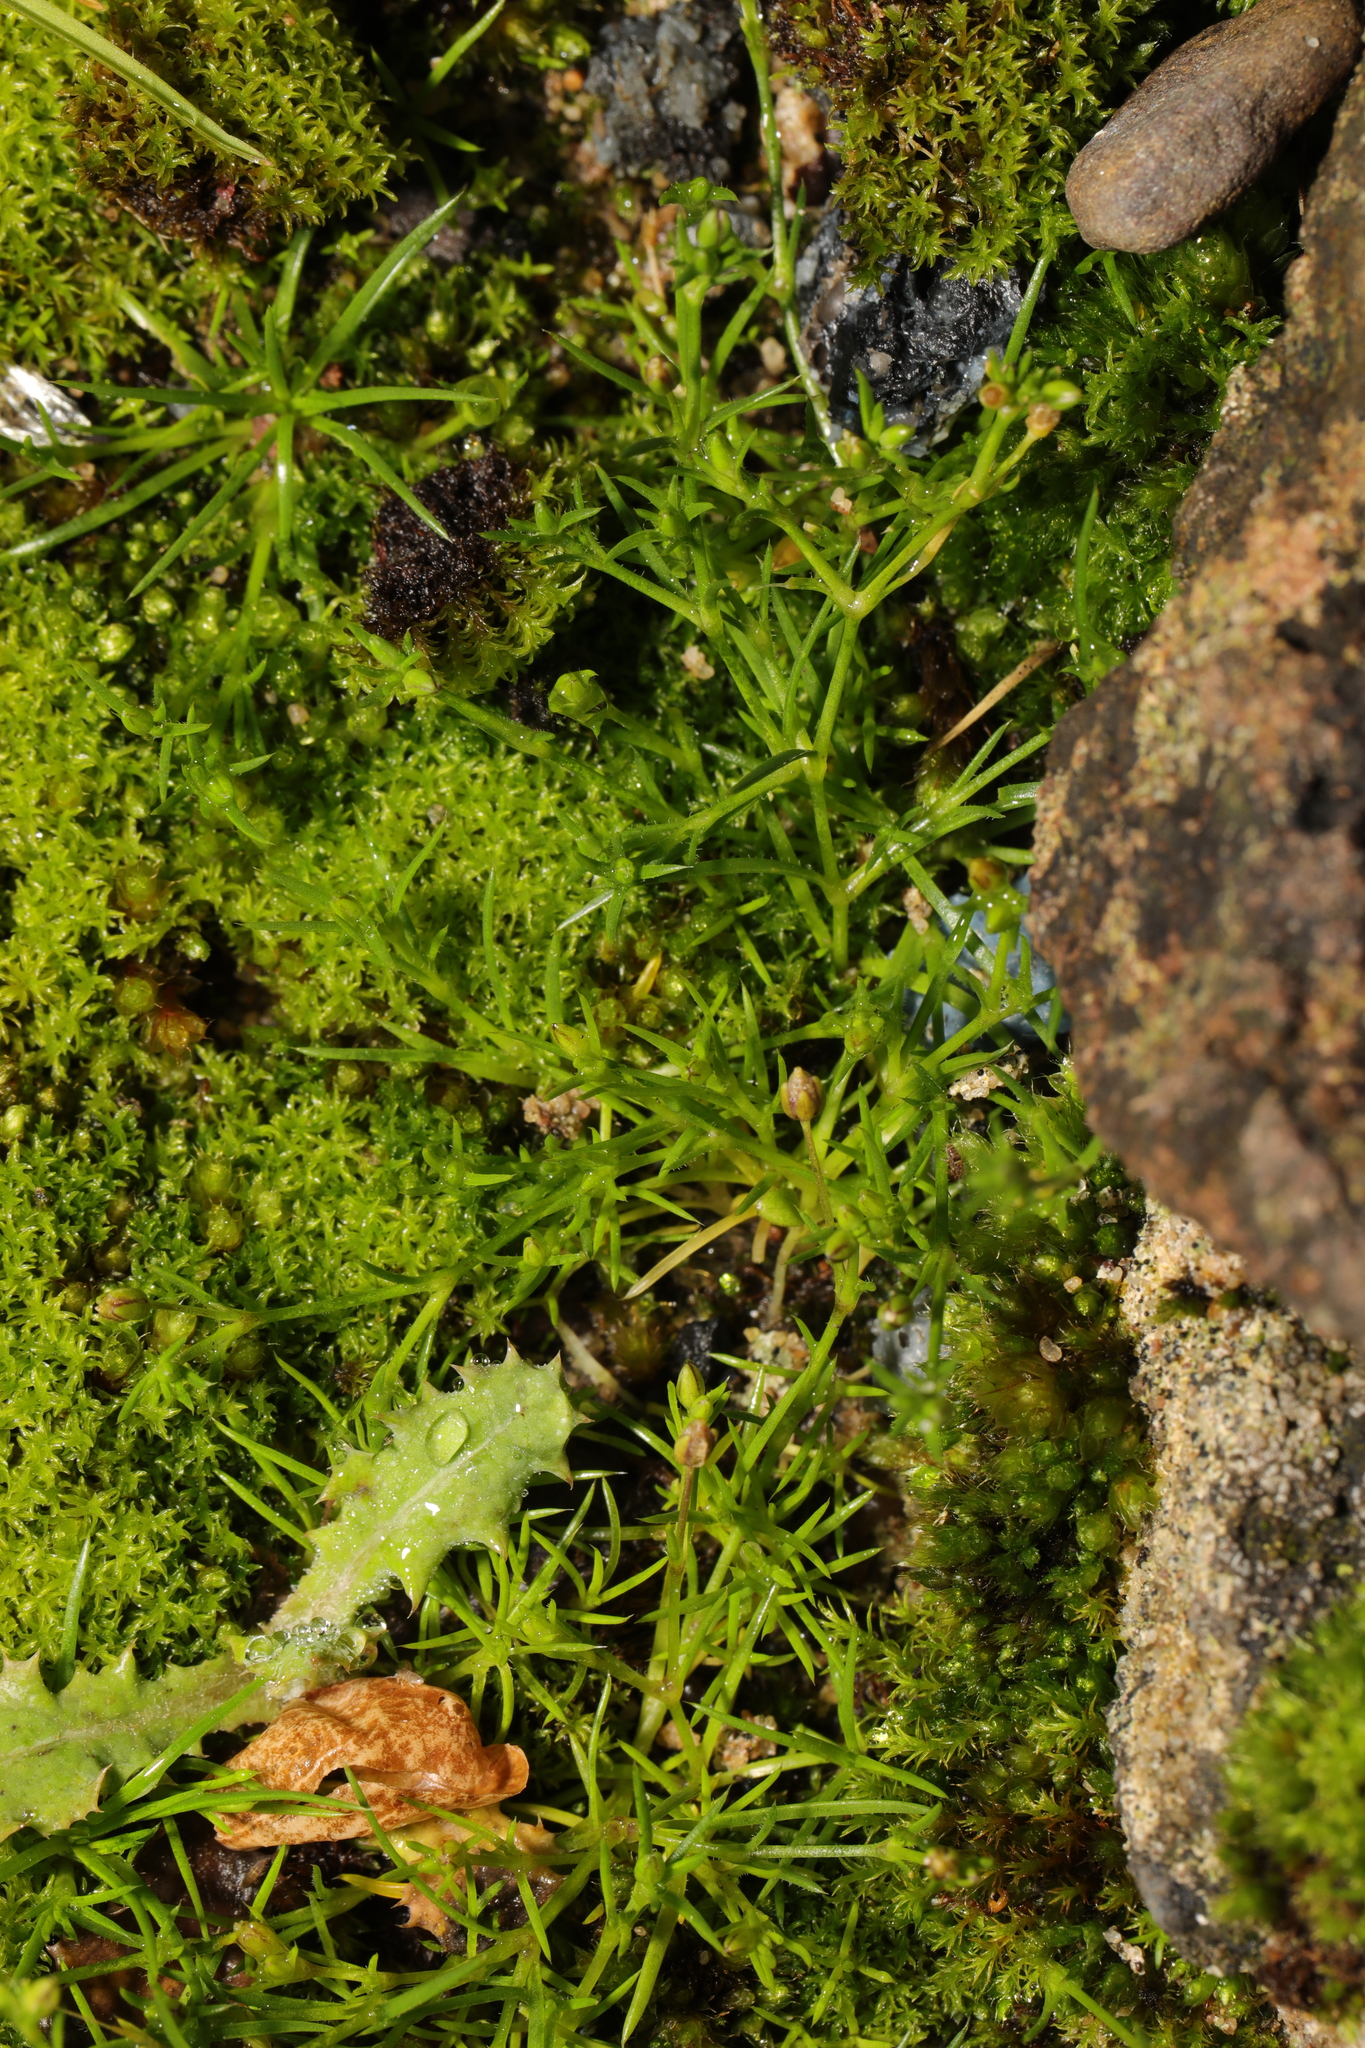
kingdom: Plantae
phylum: Tracheophyta
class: Magnoliopsida
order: Caryophyllales
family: Caryophyllaceae
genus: Sagina
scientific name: Sagina procumbens
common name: Procumbent pearlwort
